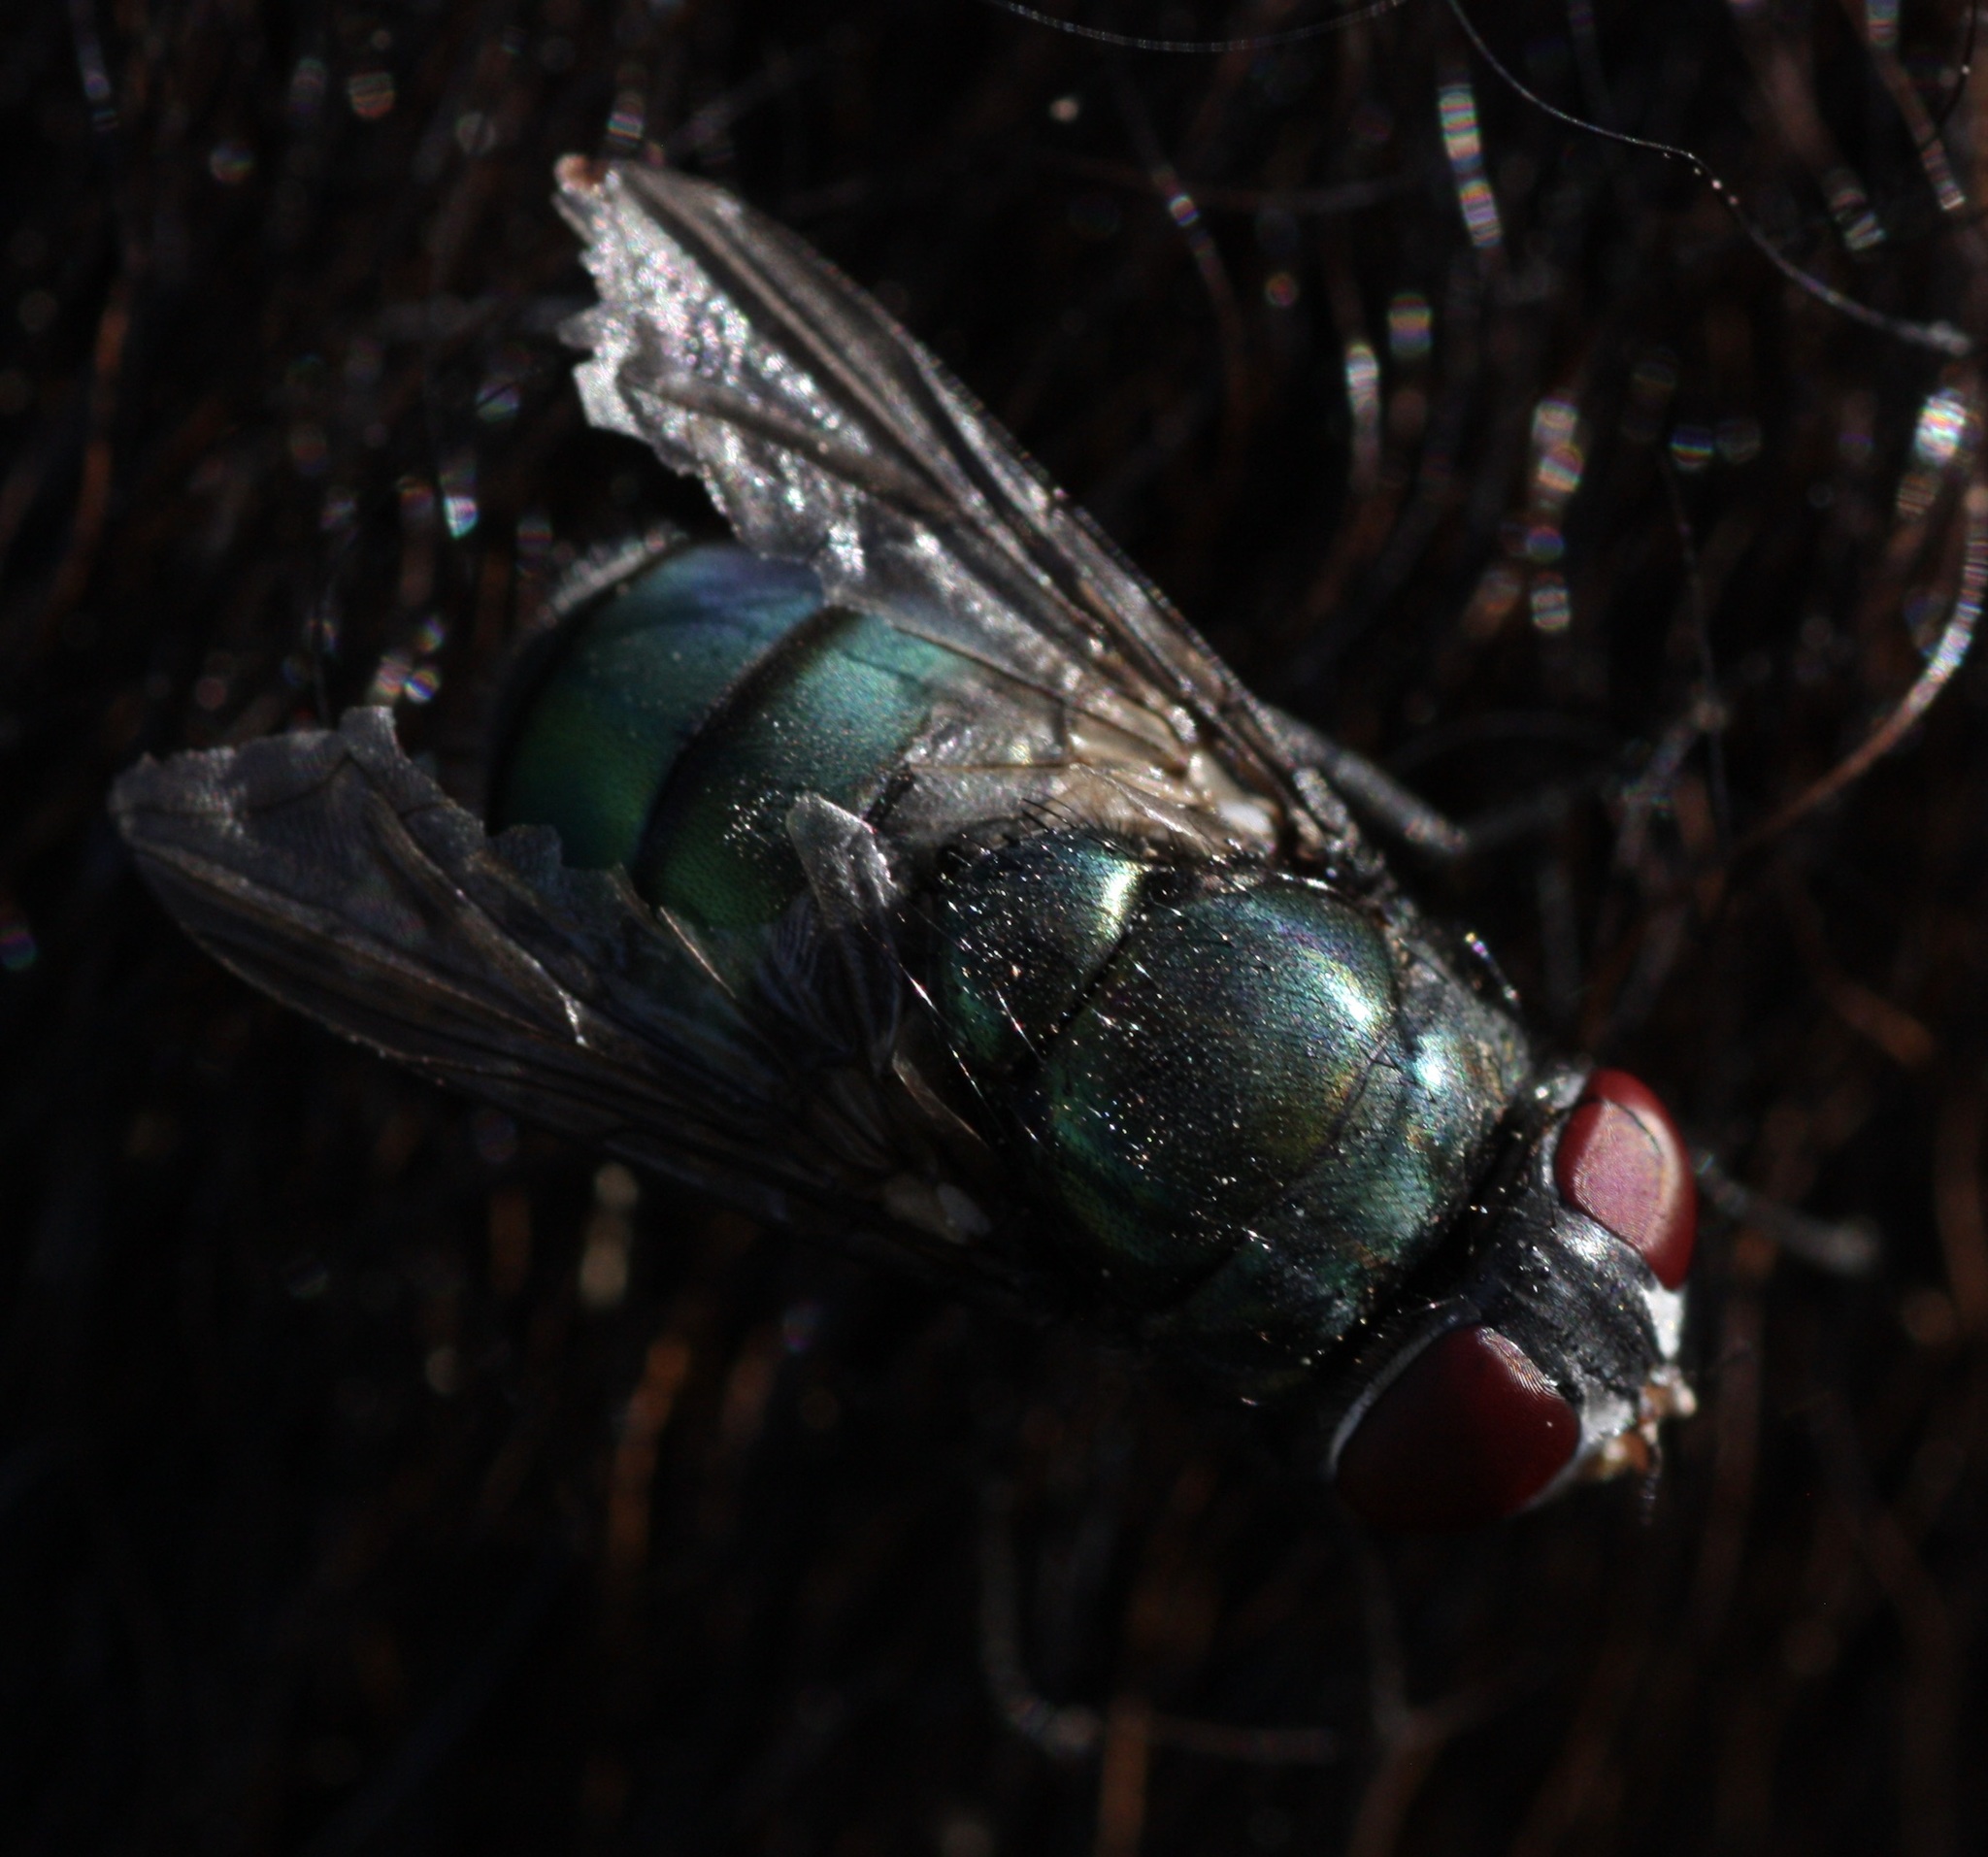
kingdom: Animalia
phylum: Arthropoda
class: Insecta
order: Diptera
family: Calliphoridae
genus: Phormia
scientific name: Phormia regina
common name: Black blow fly
